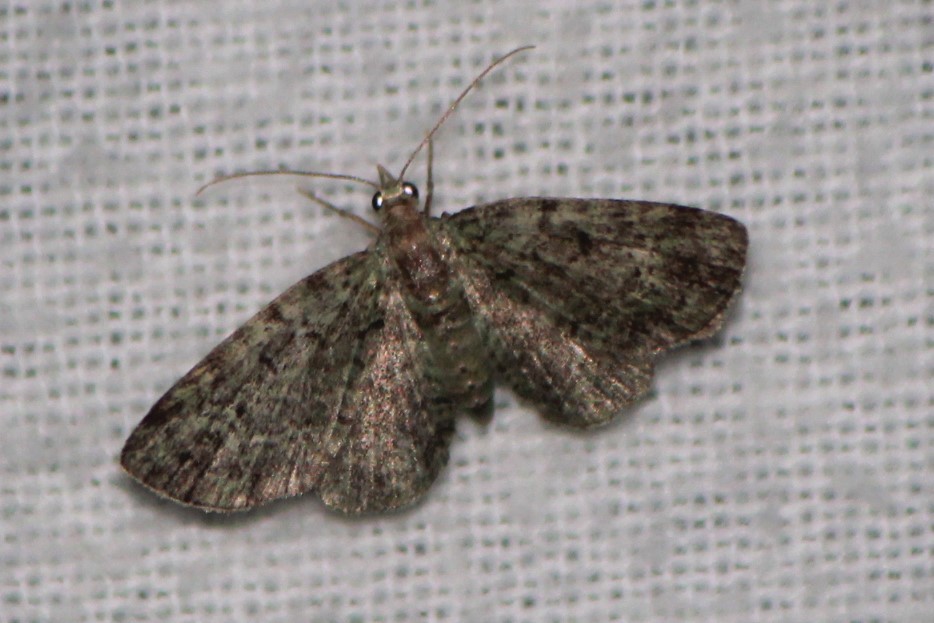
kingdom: Animalia
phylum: Arthropoda
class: Insecta
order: Lepidoptera
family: Geometridae
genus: Pasiphila
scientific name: Pasiphila rectangulata
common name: Green pug
